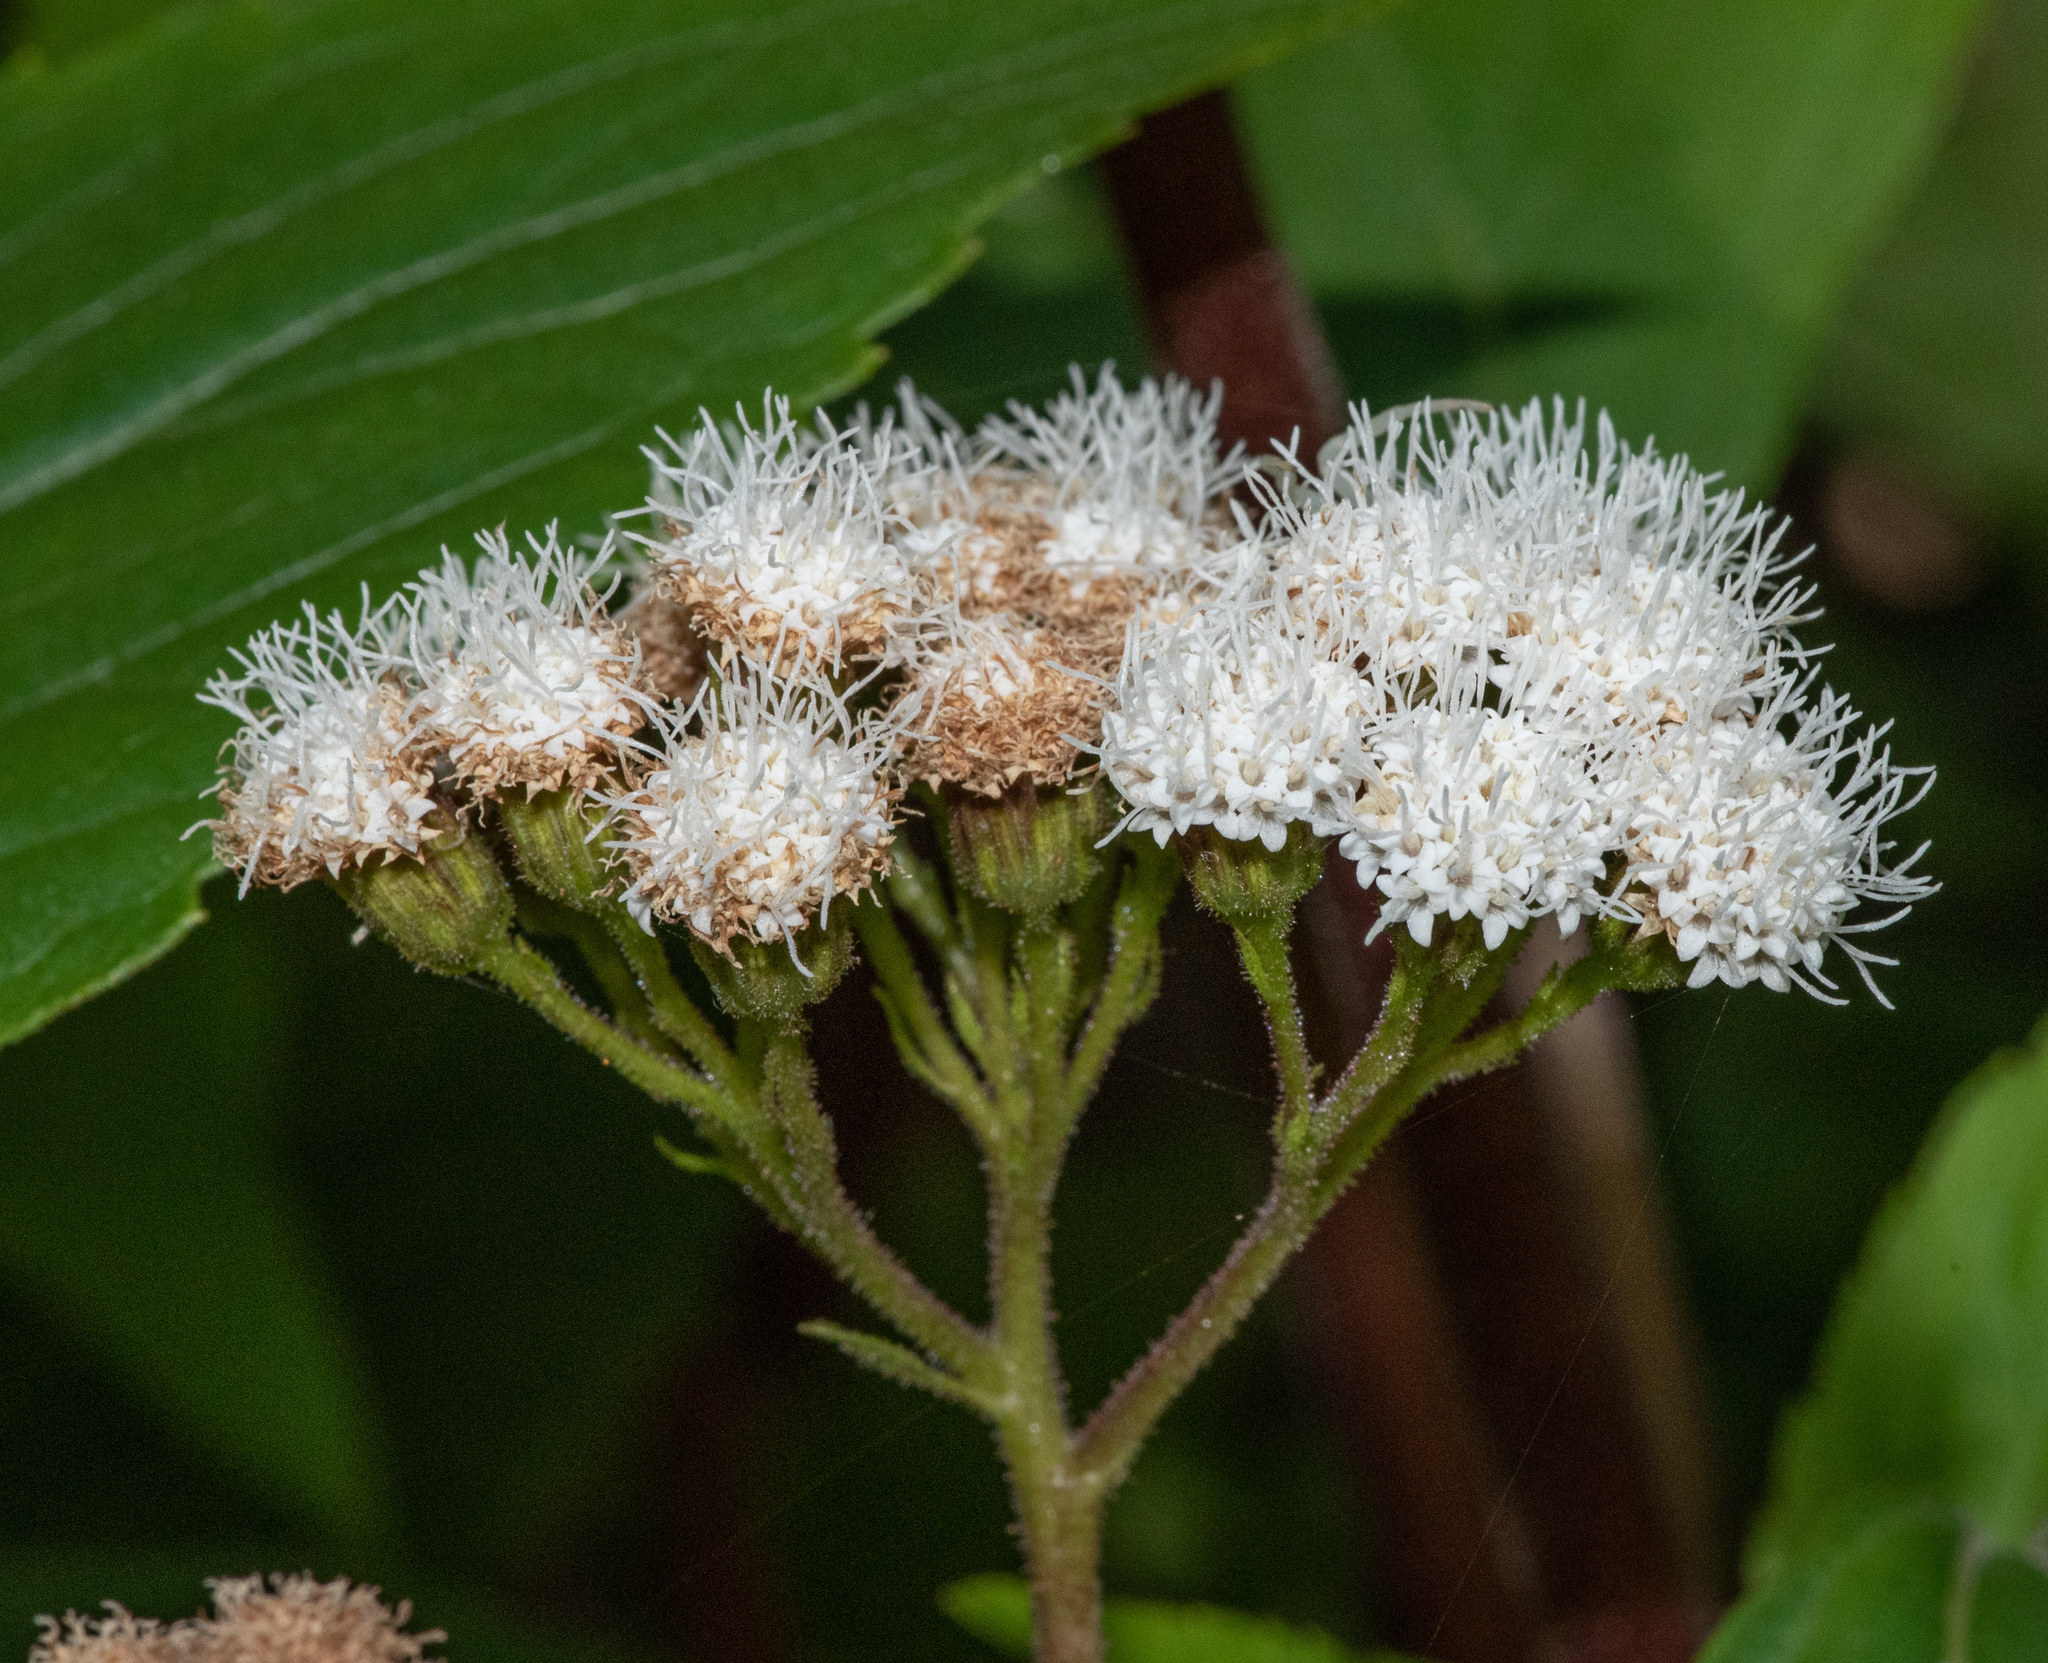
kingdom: Plantae
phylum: Tracheophyta
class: Magnoliopsida
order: Asterales
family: Asteraceae
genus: Ageratina
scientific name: Ageratina adenophora
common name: Sticky snakeroot
